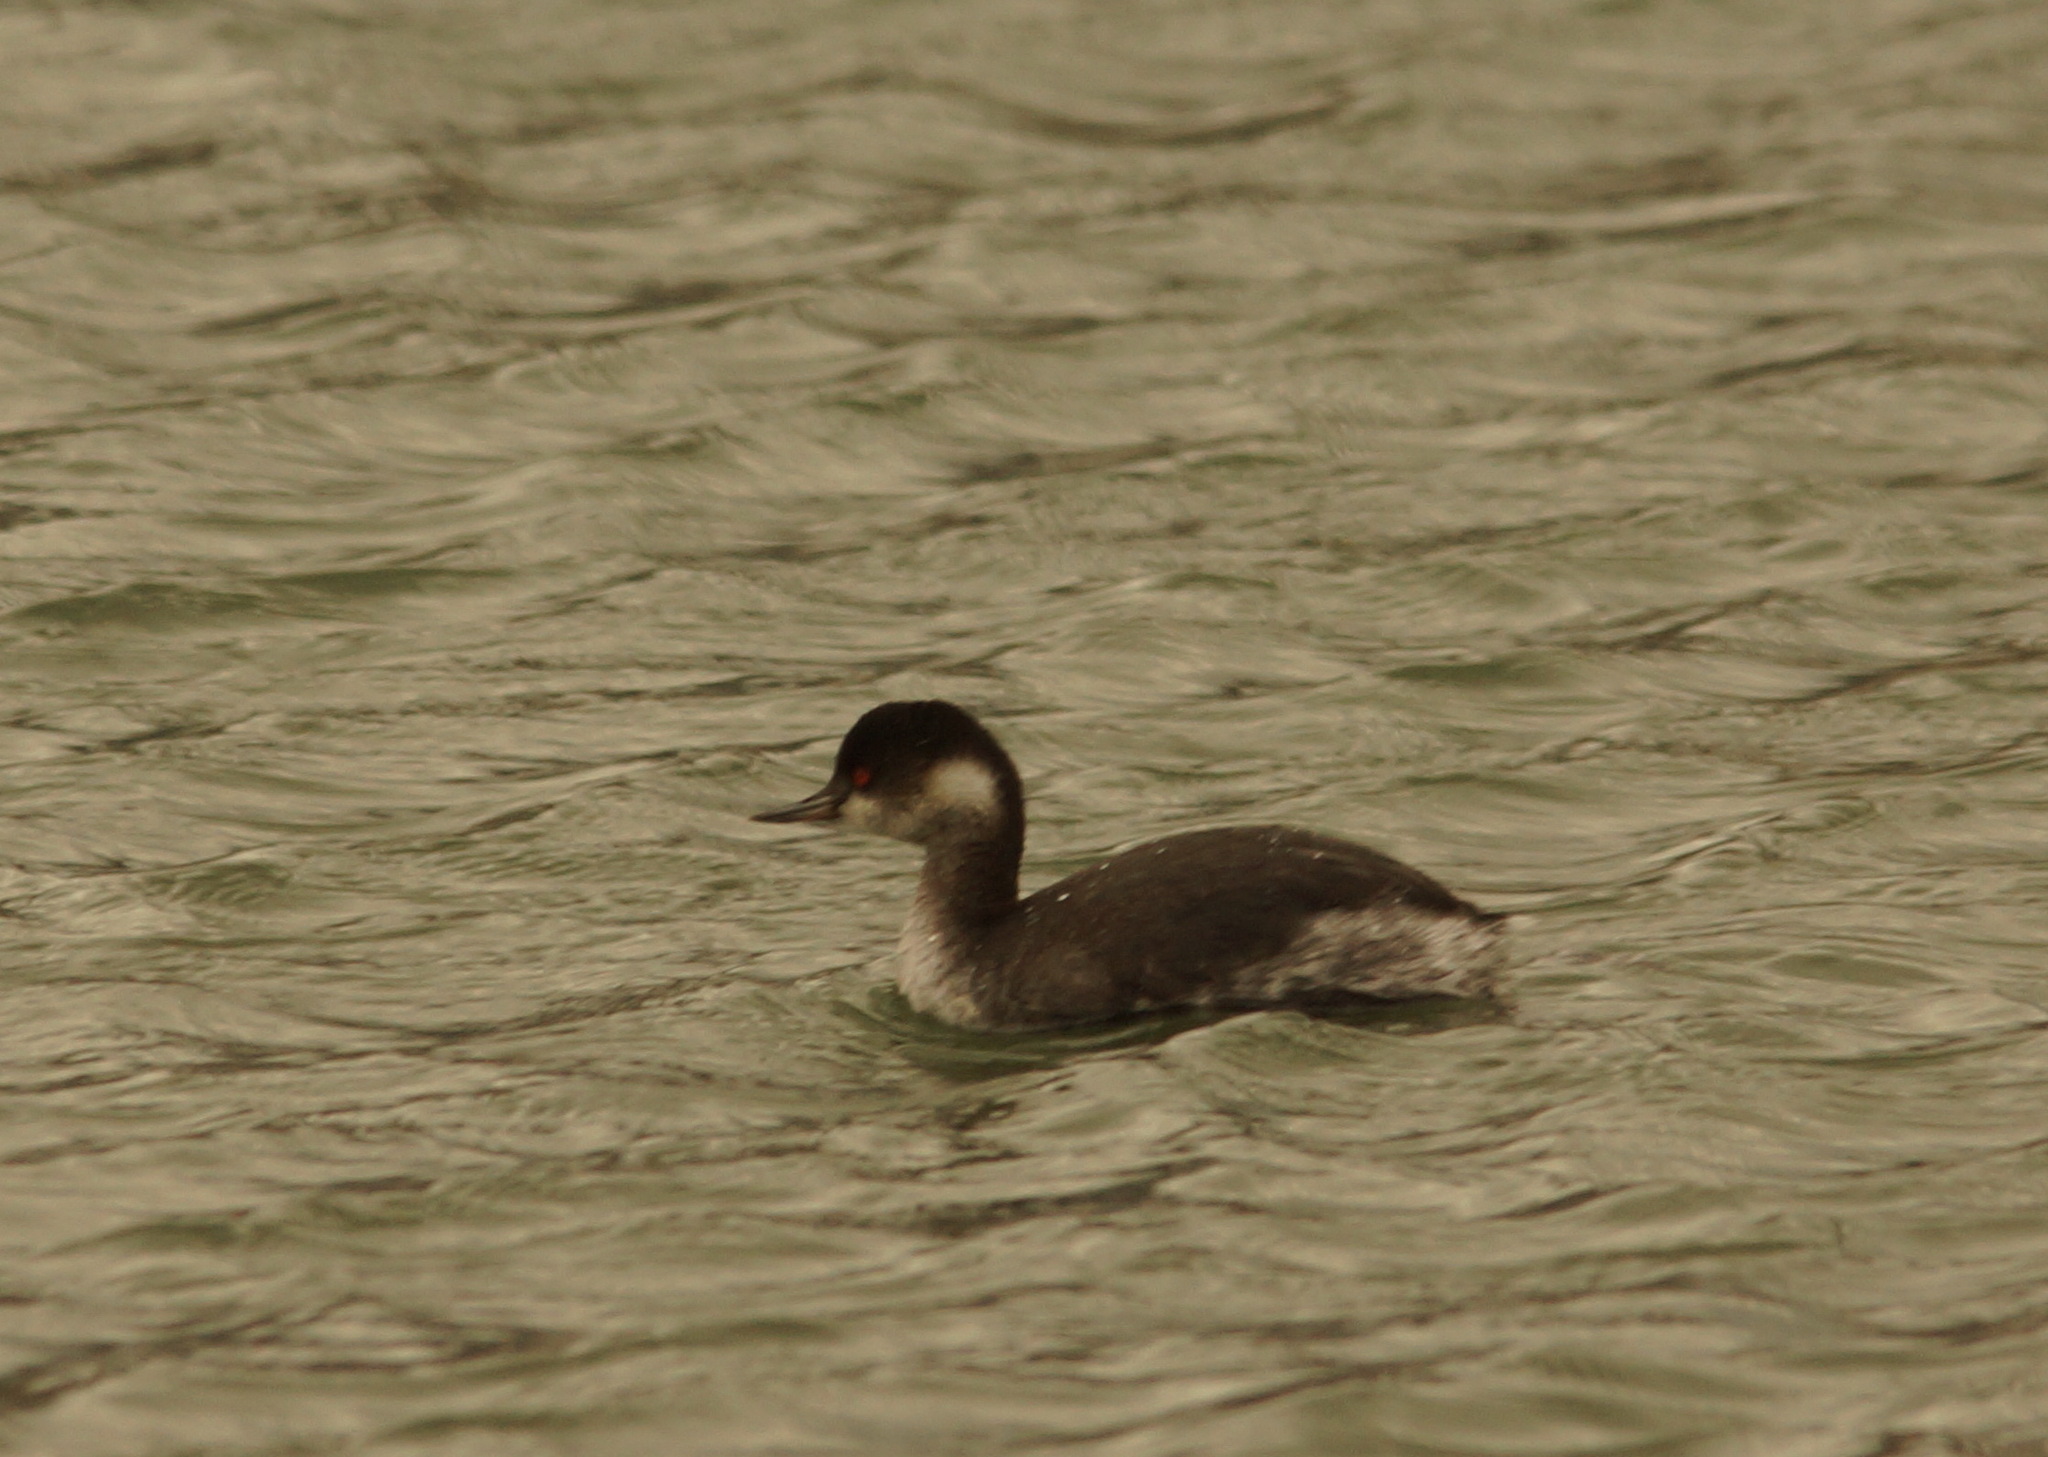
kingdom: Animalia
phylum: Chordata
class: Aves
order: Podicipediformes
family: Podicipedidae
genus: Podiceps
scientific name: Podiceps nigricollis
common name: Black-necked grebe
